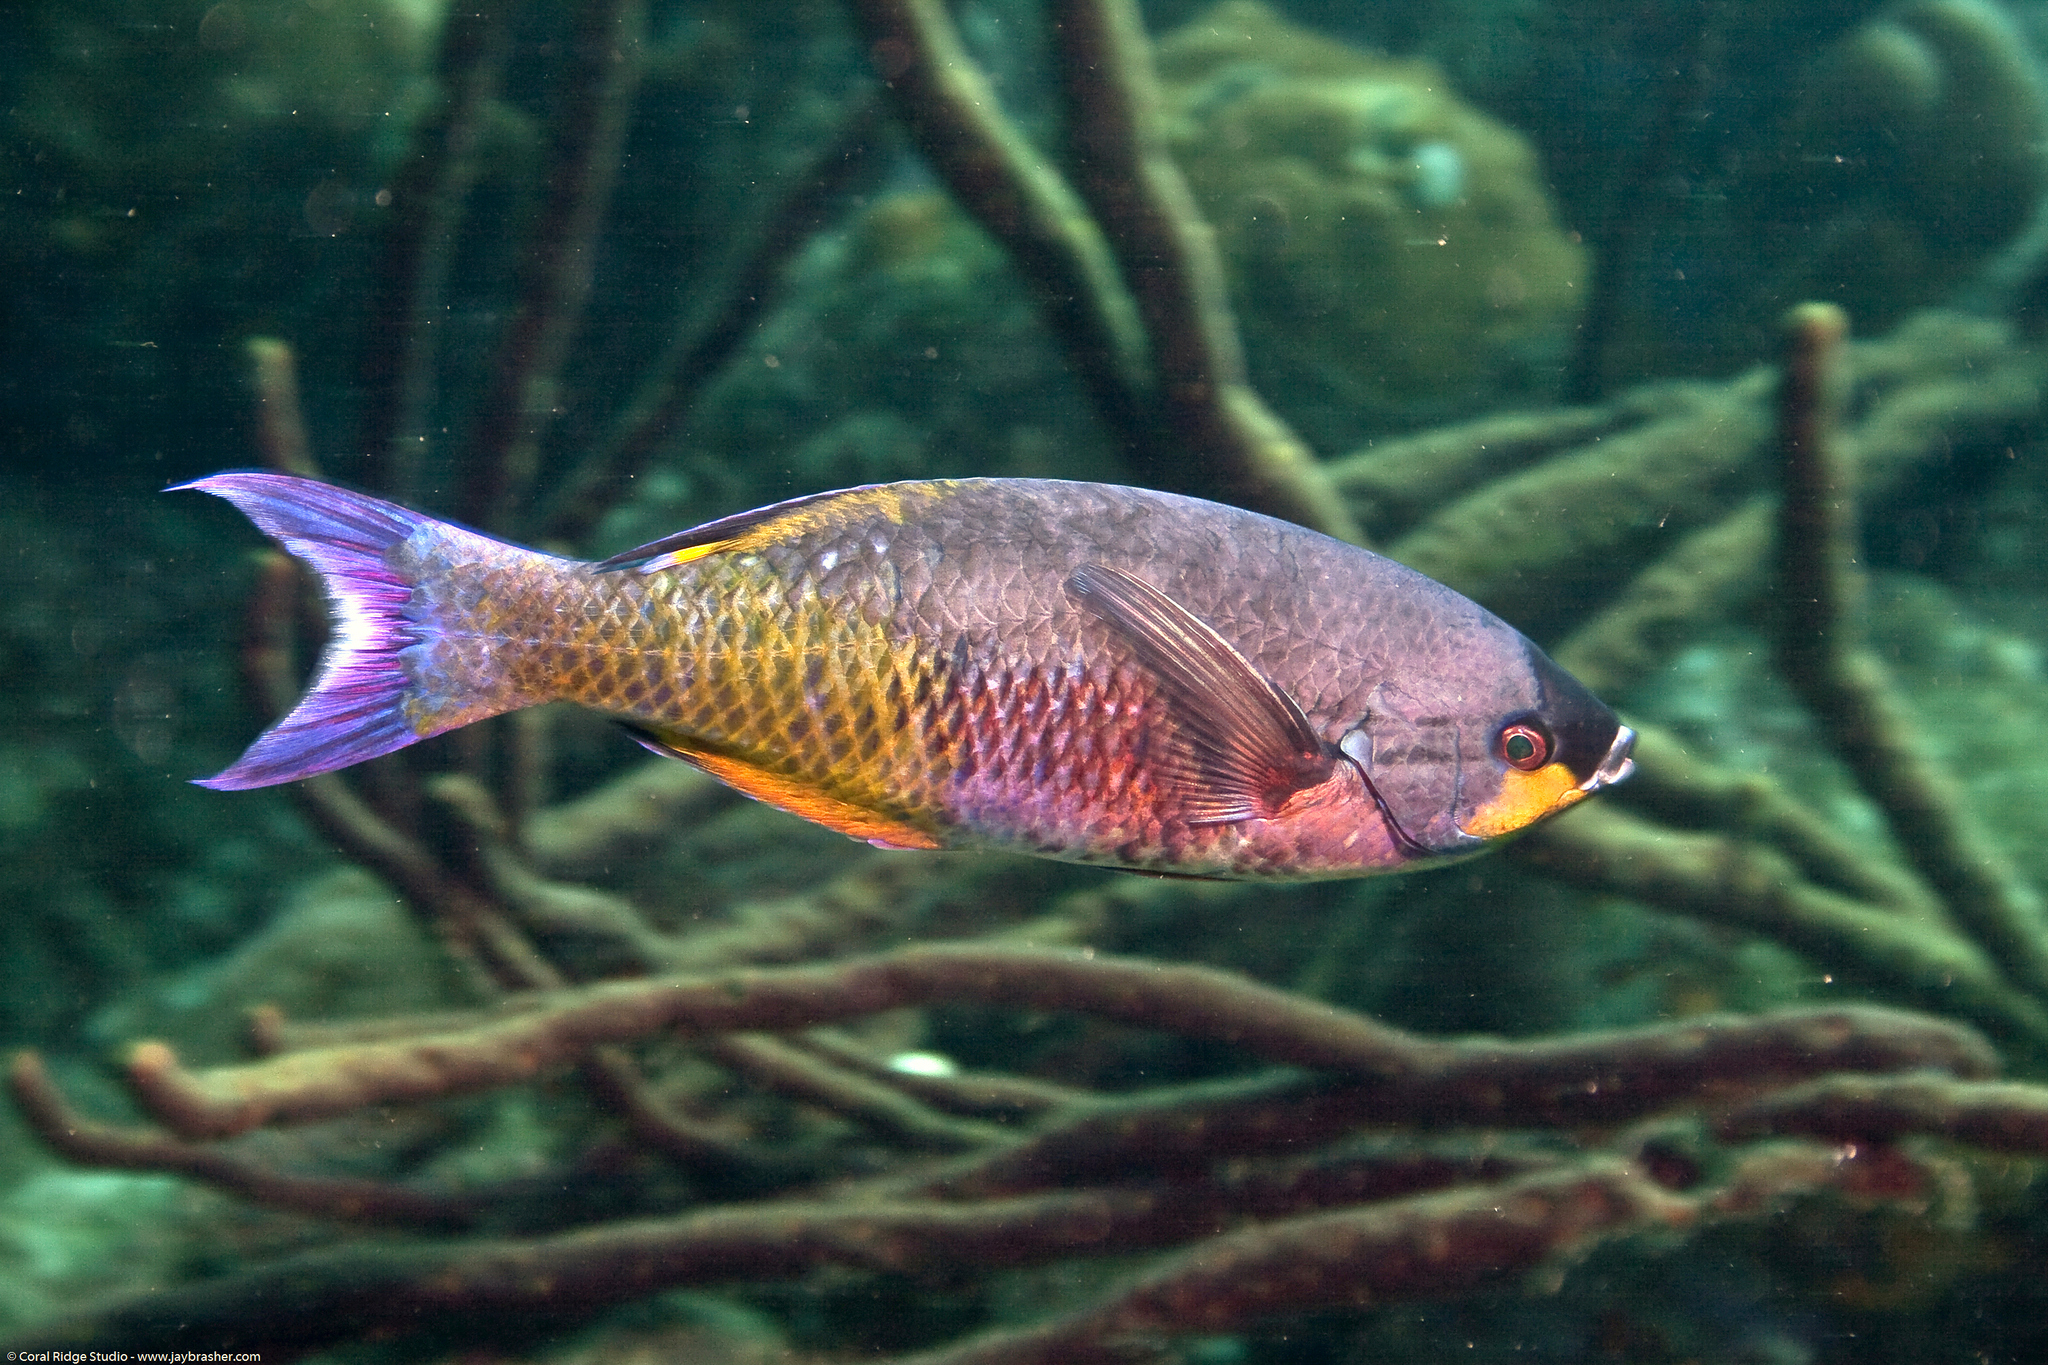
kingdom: Animalia
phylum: Chordata
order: Perciformes
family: Labridae
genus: Bodianus
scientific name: Bodianus
